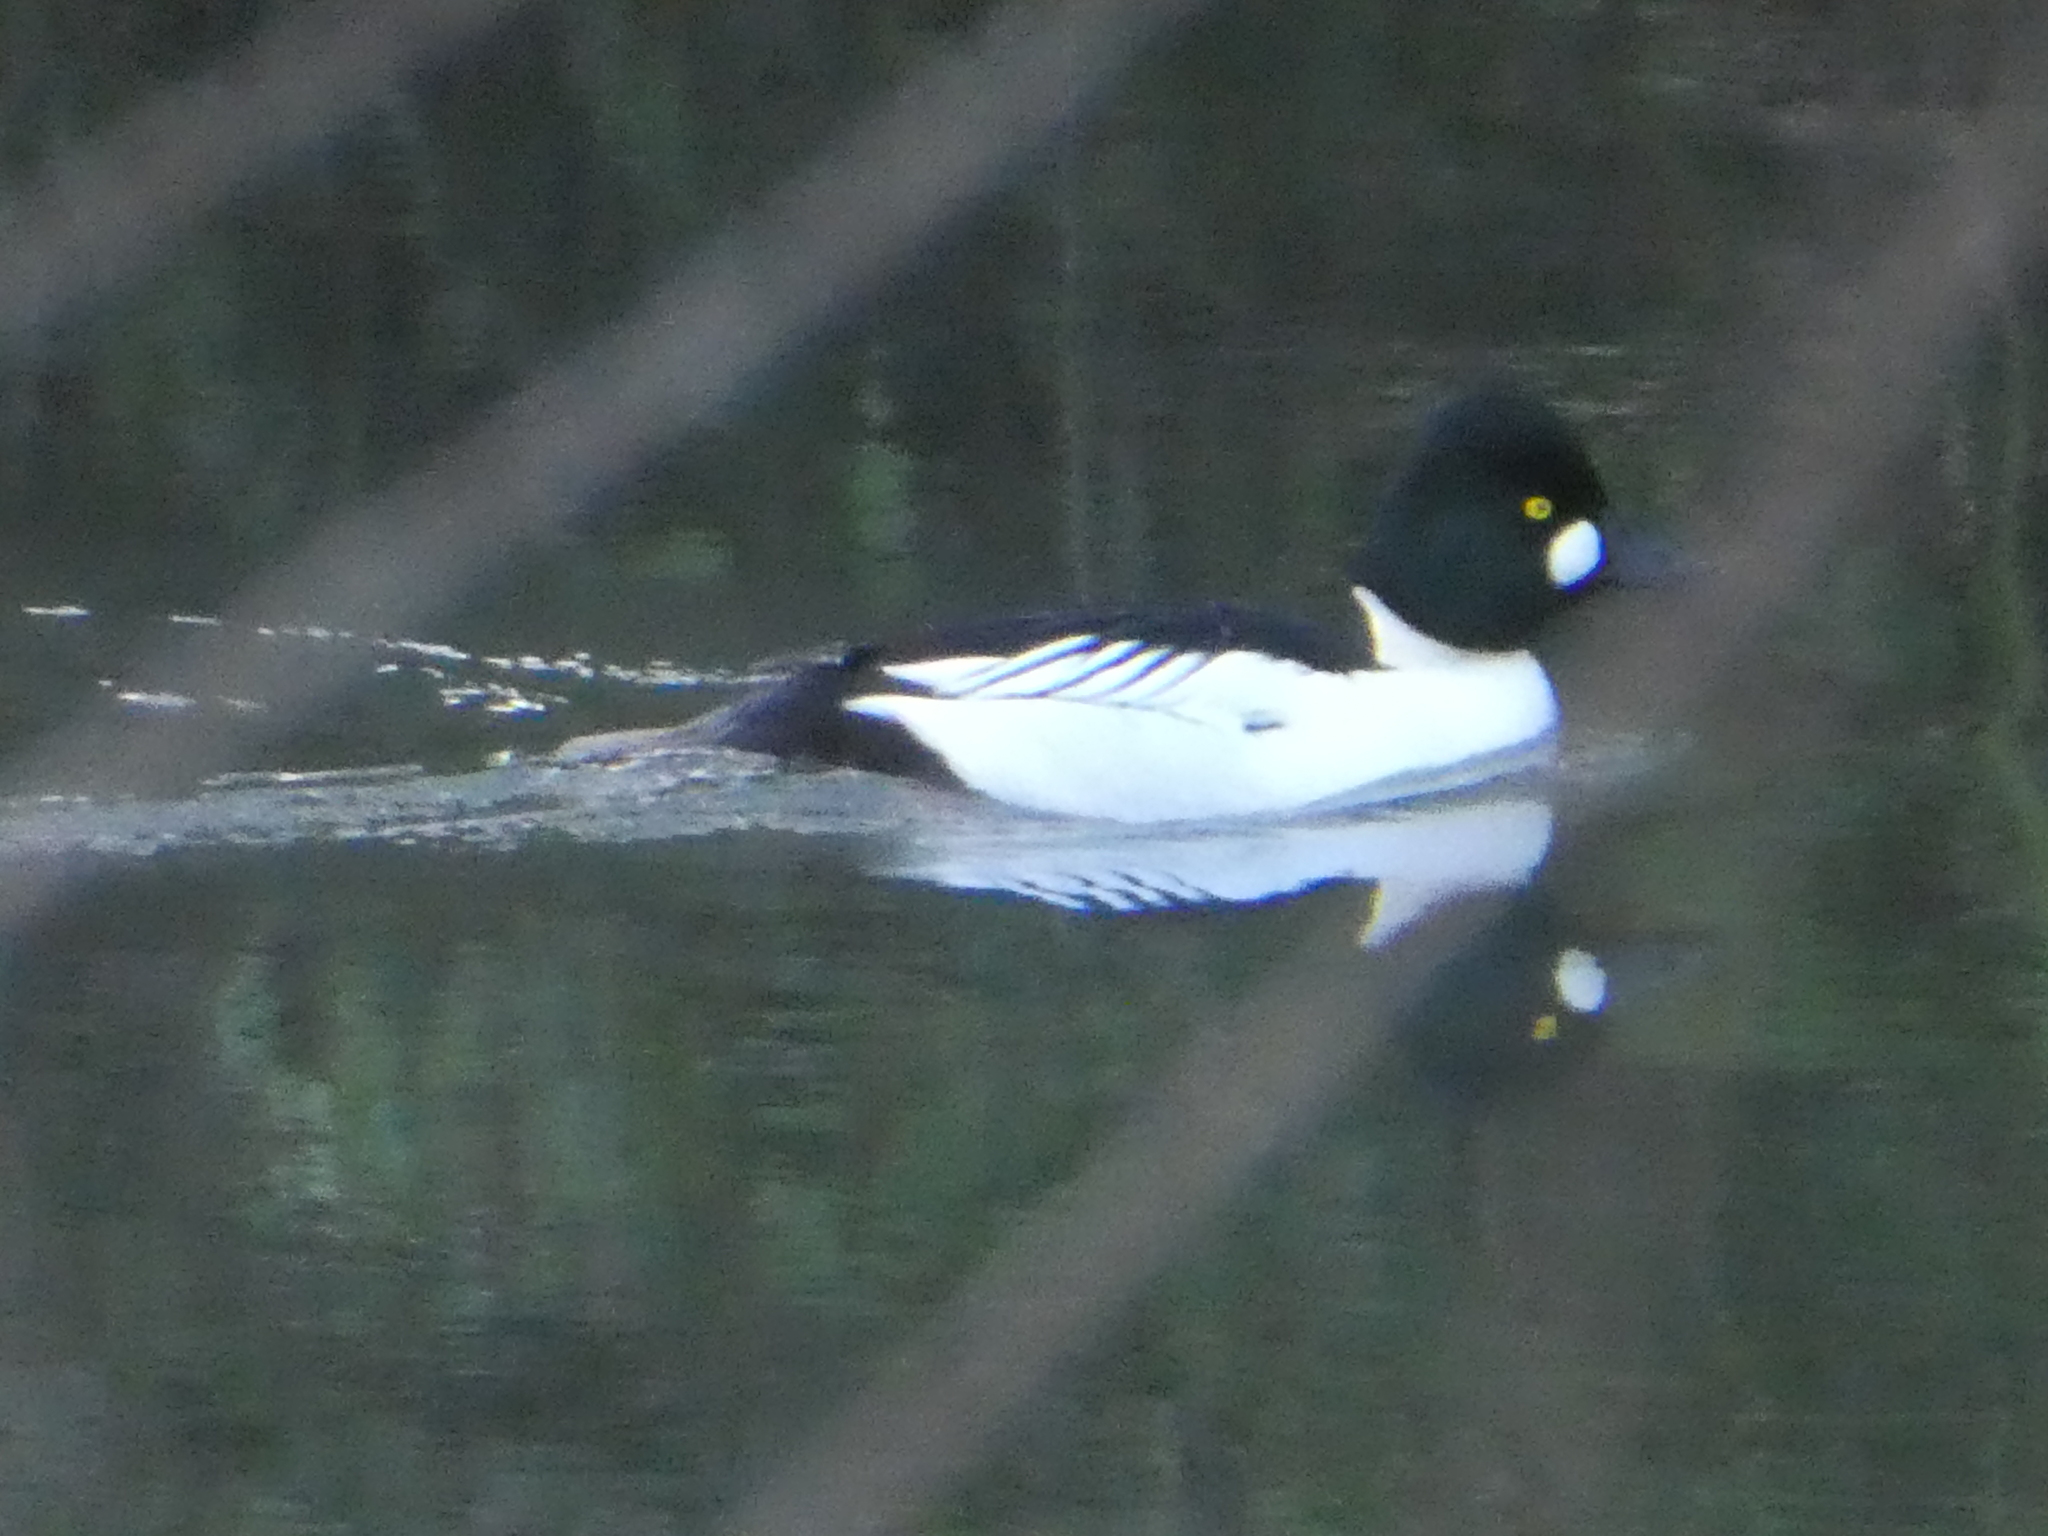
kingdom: Animalia
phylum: Chordata
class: Aves
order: Anseriformes
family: Anatidae
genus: Bucephala
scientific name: Bucephala clangula
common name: Common goldeneye
